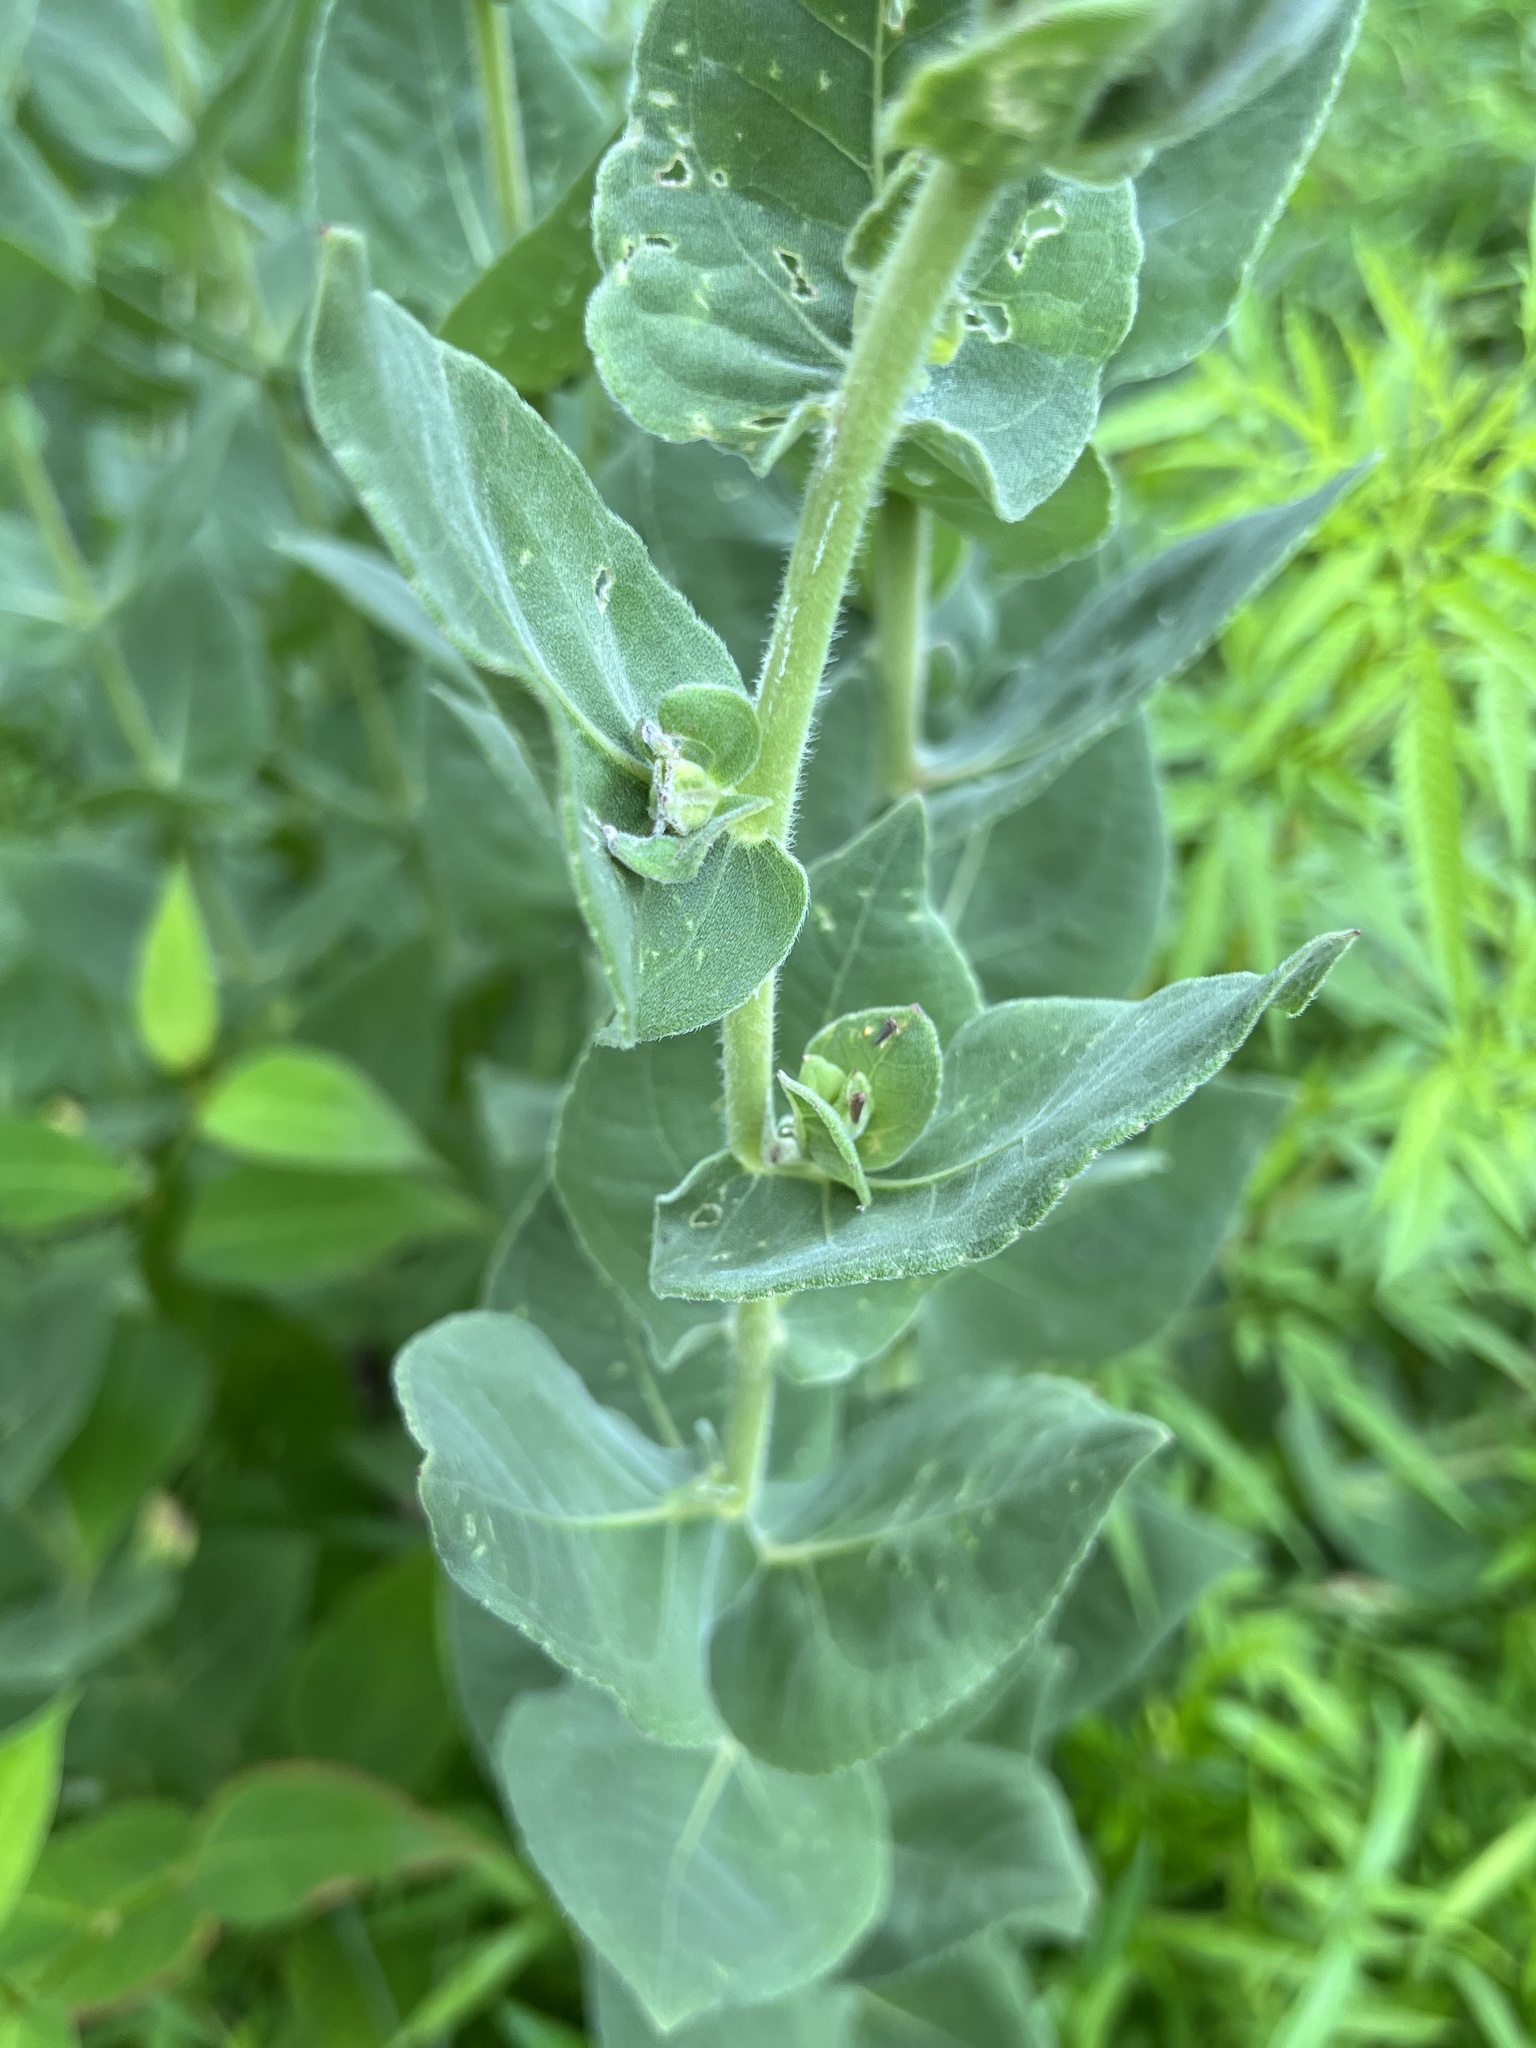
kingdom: Plantae
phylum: Tracheophyta
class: Magnoliopsida
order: Asterales
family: Asteraceae
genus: Helianthus
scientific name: Helianthus mollis
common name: Ashy sunflower
